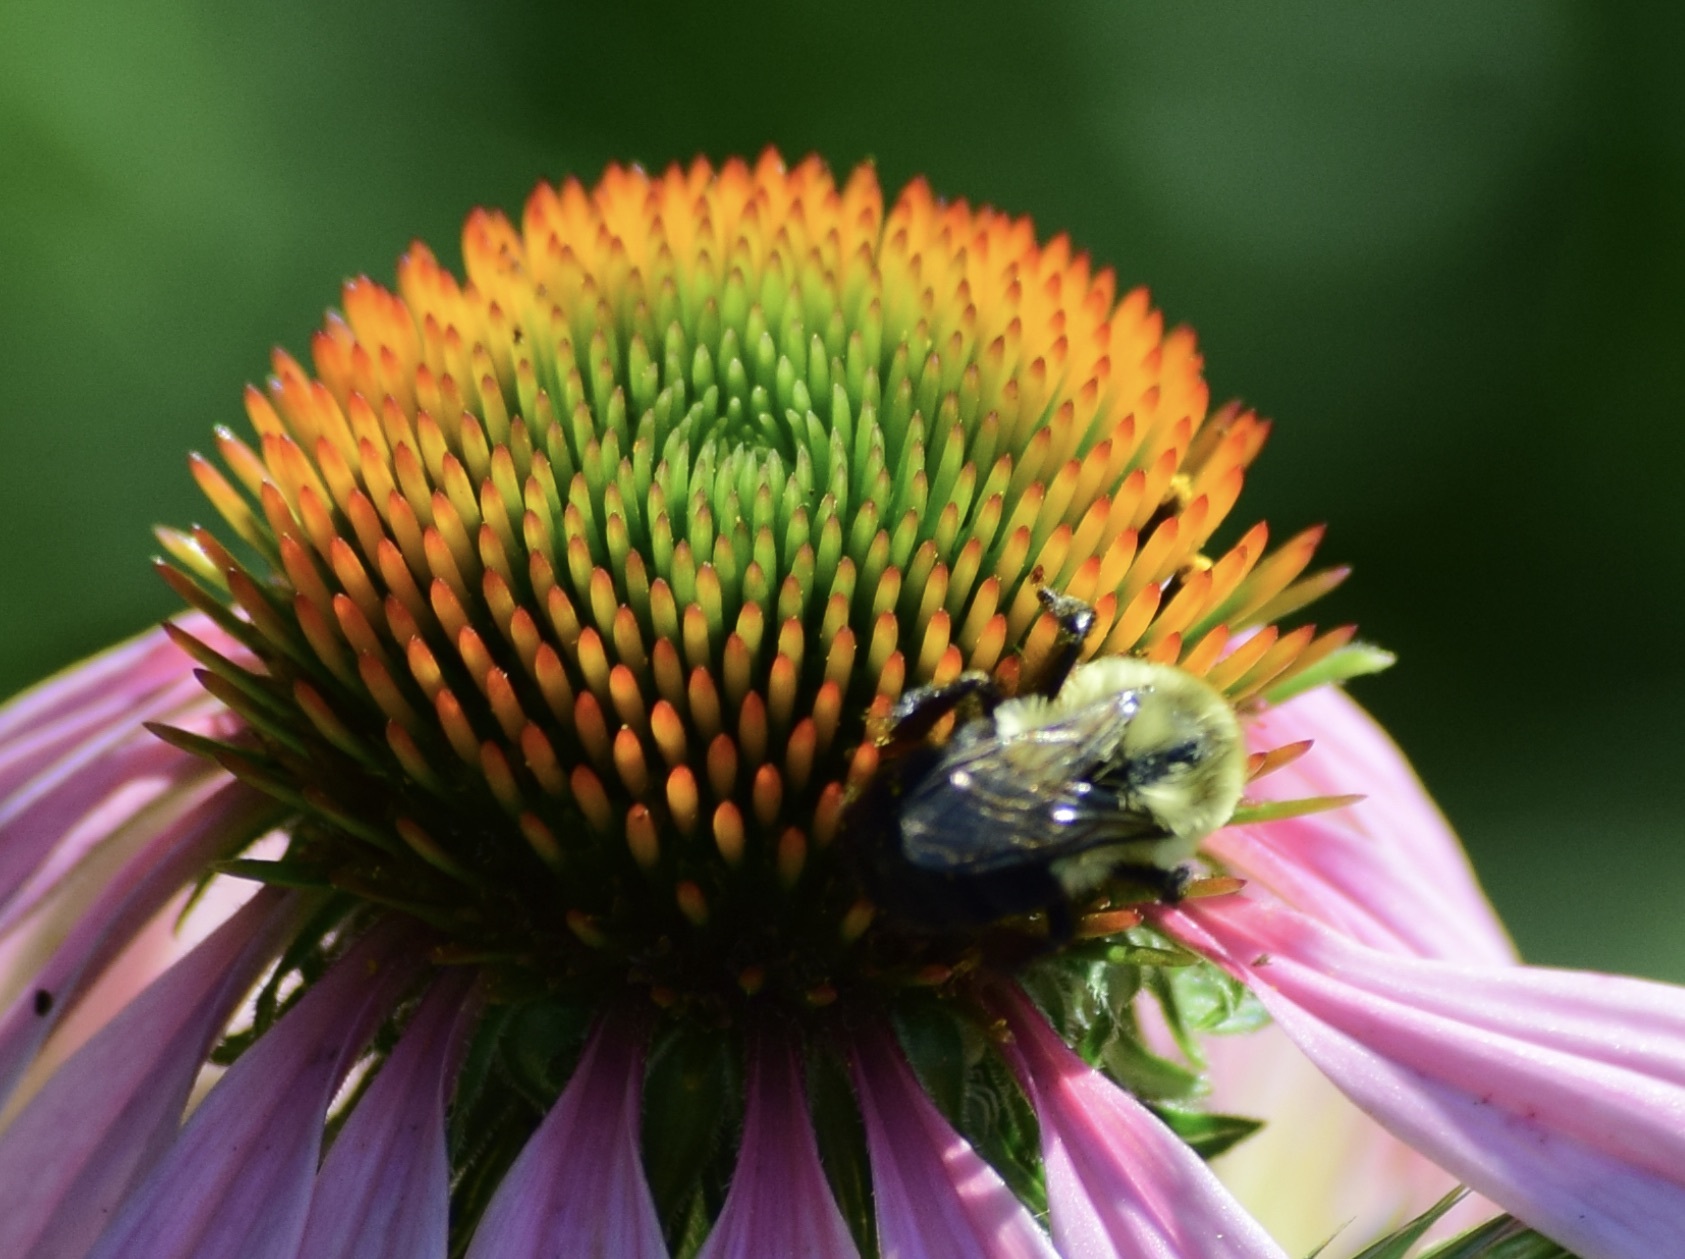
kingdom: Animalia
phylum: Arthropoda
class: Insecta
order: Hymenoptera
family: Apidae
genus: Bombus
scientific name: Bombus impatiens
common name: Common eastern bumble bee
